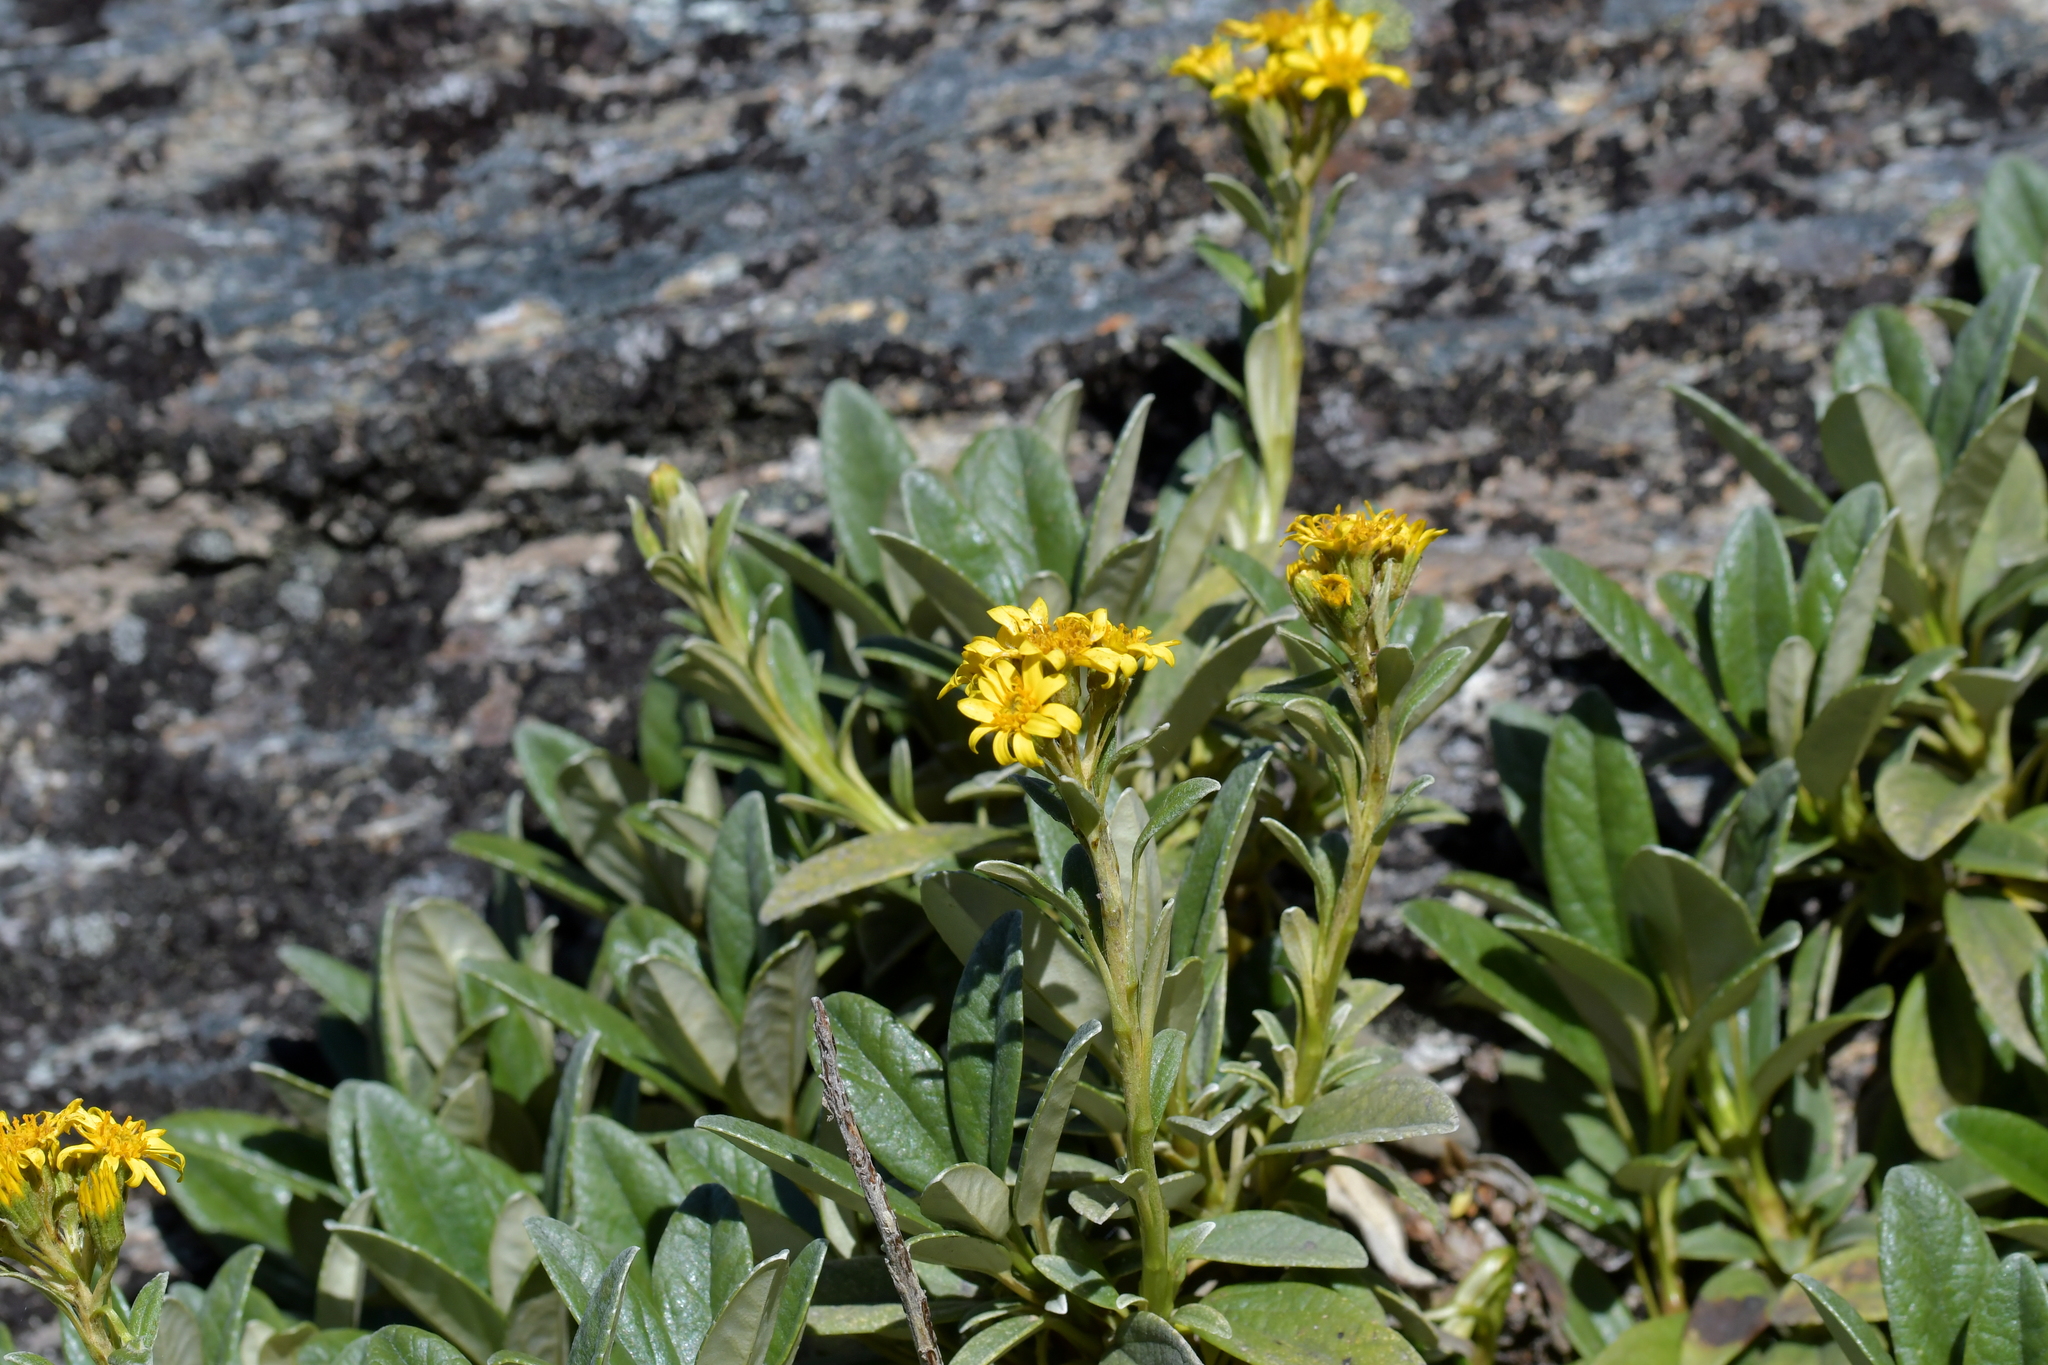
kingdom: Plantae
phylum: Tracheophyta
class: Magnoliopsida
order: Asterales
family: Asteraceae
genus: Brachyglottis
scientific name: Brachyglottis revoluta
